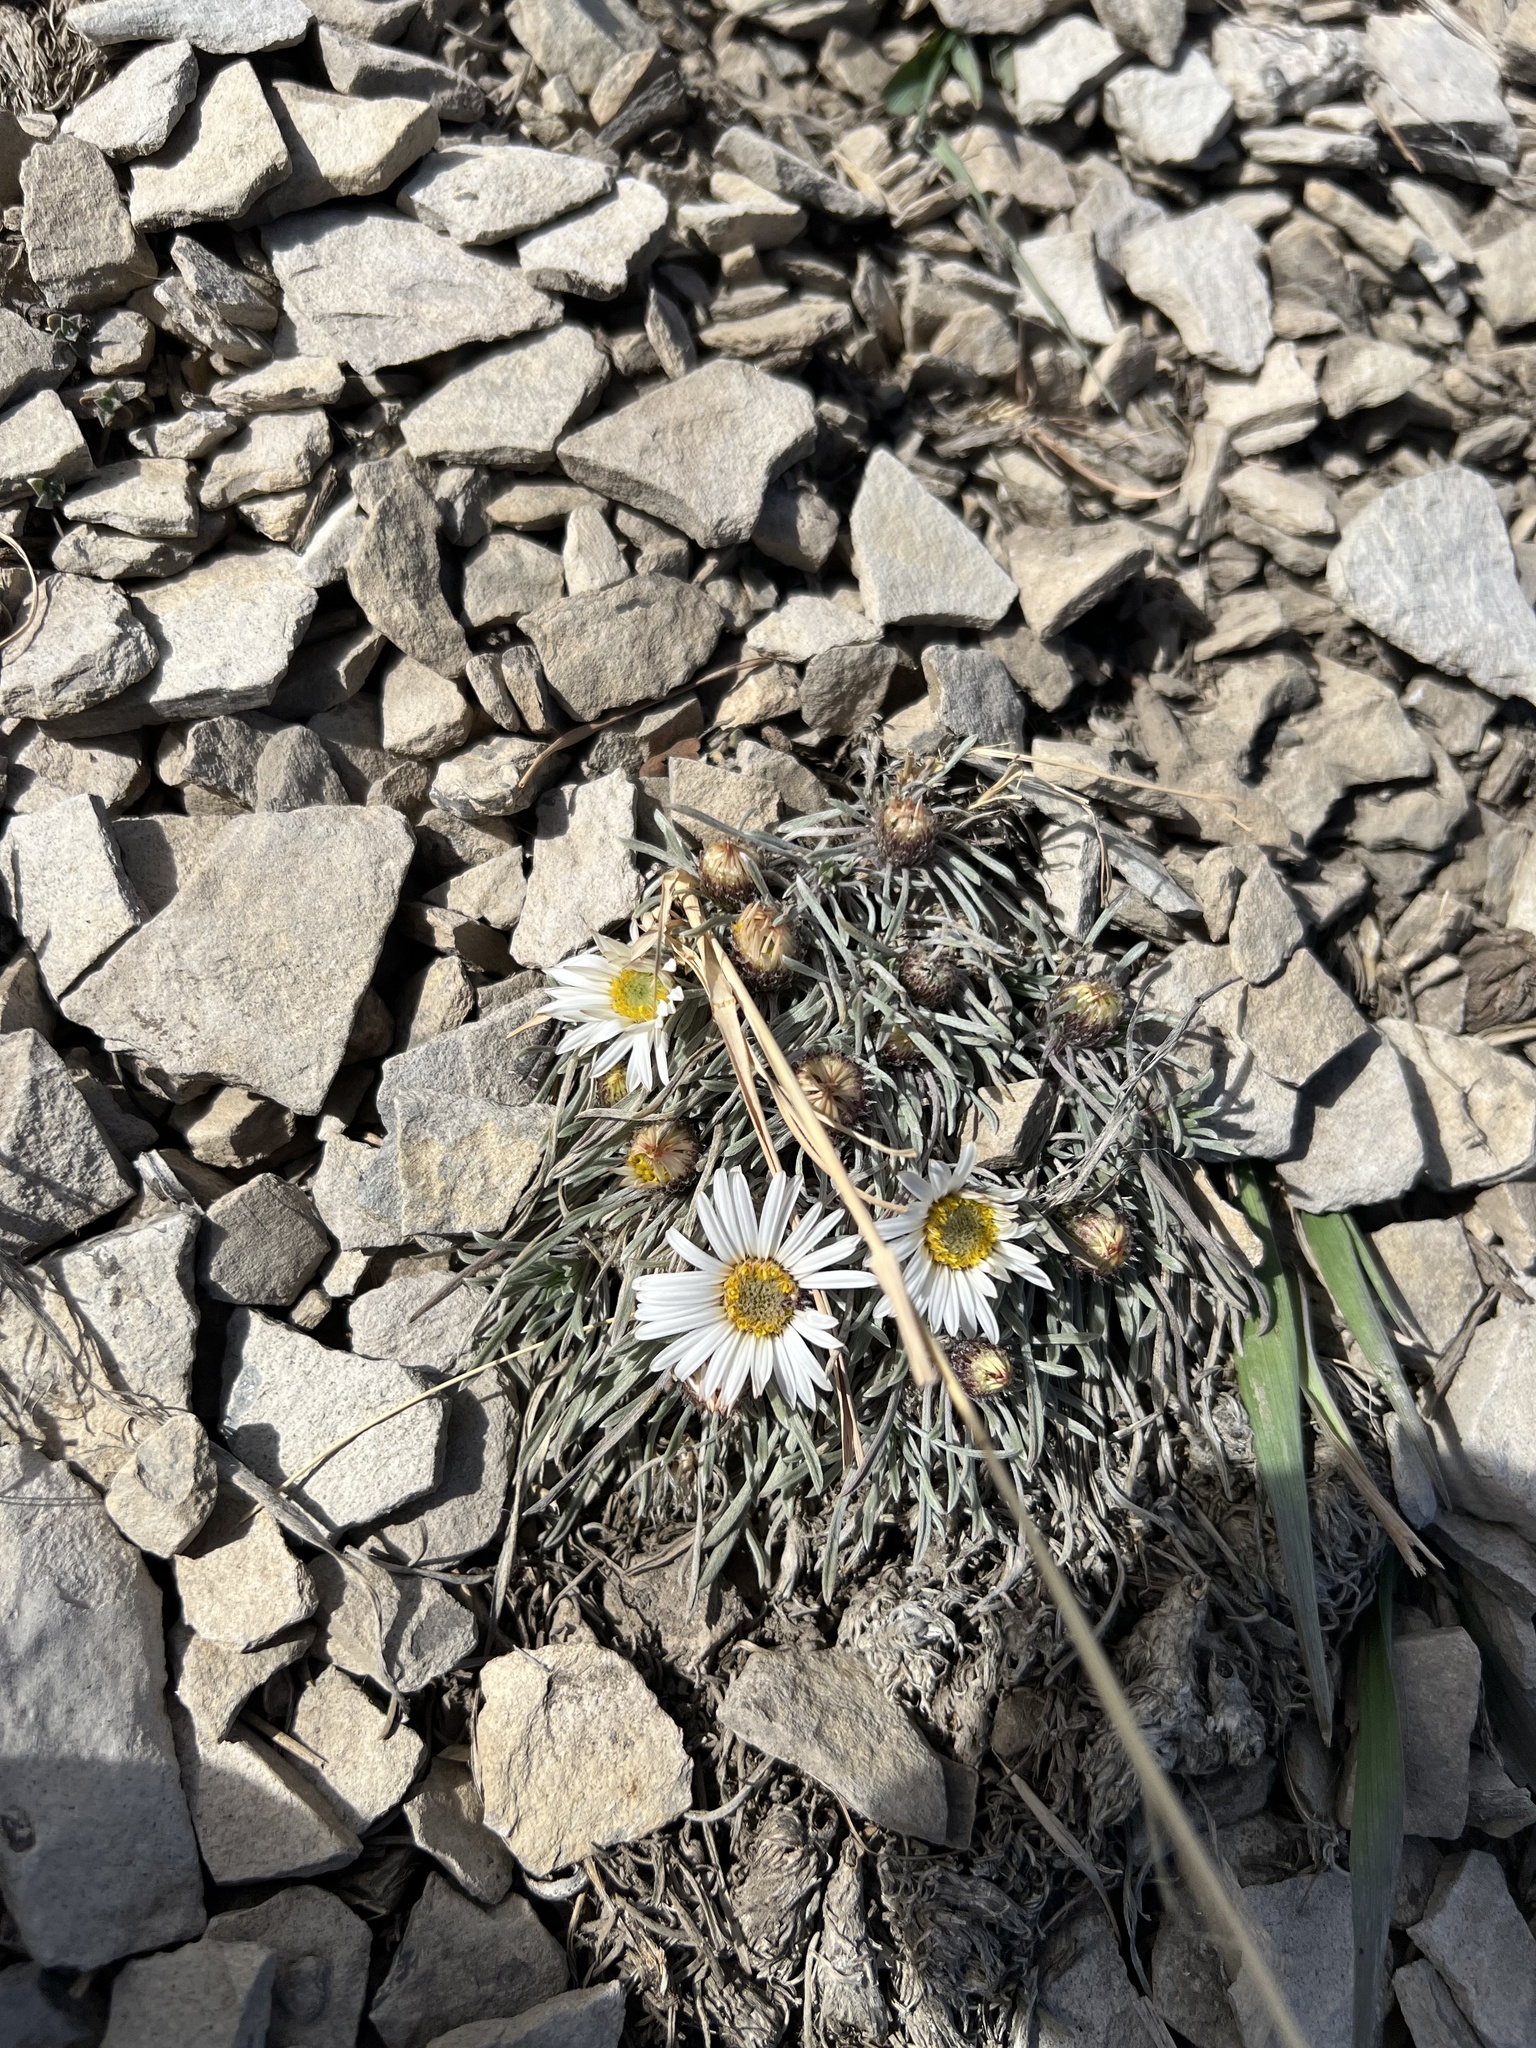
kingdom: Plantae
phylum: Tracheophyta
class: Magnoliopsida
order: Asterales
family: Asteraceae
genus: Townsendia
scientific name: Townsendia hookeri
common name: Hooker's townsend daisy
